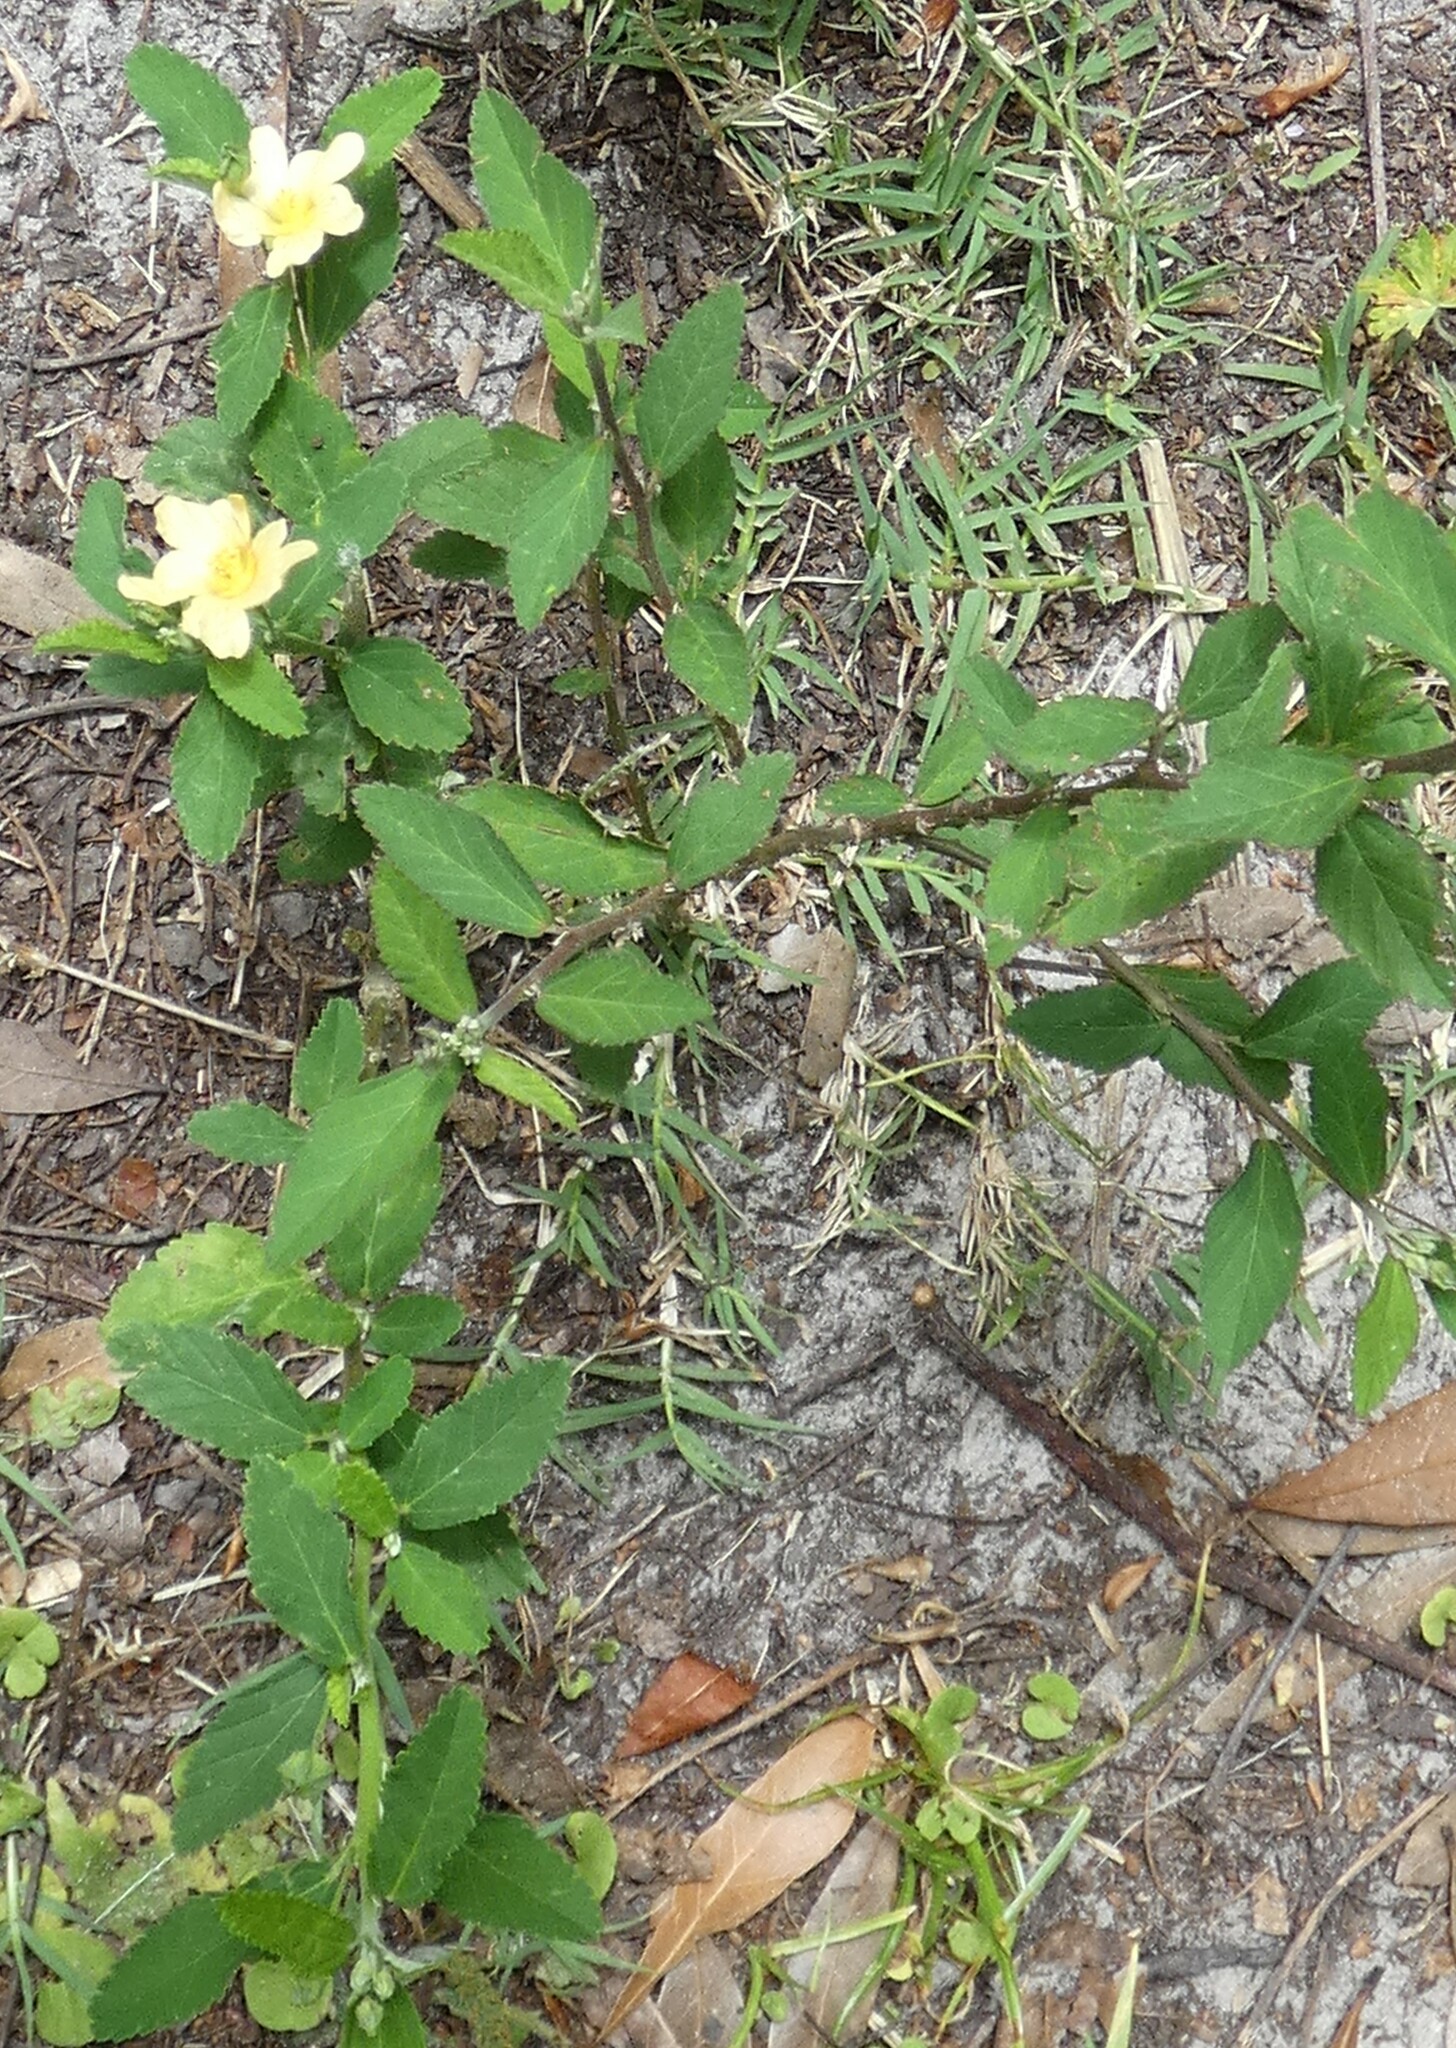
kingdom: Plantae
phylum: Tracheophyta
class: Magnoliopsida
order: Malvales
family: Malvaceae
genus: Sida
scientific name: Sida rhombifolia
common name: Queensland-hemp
